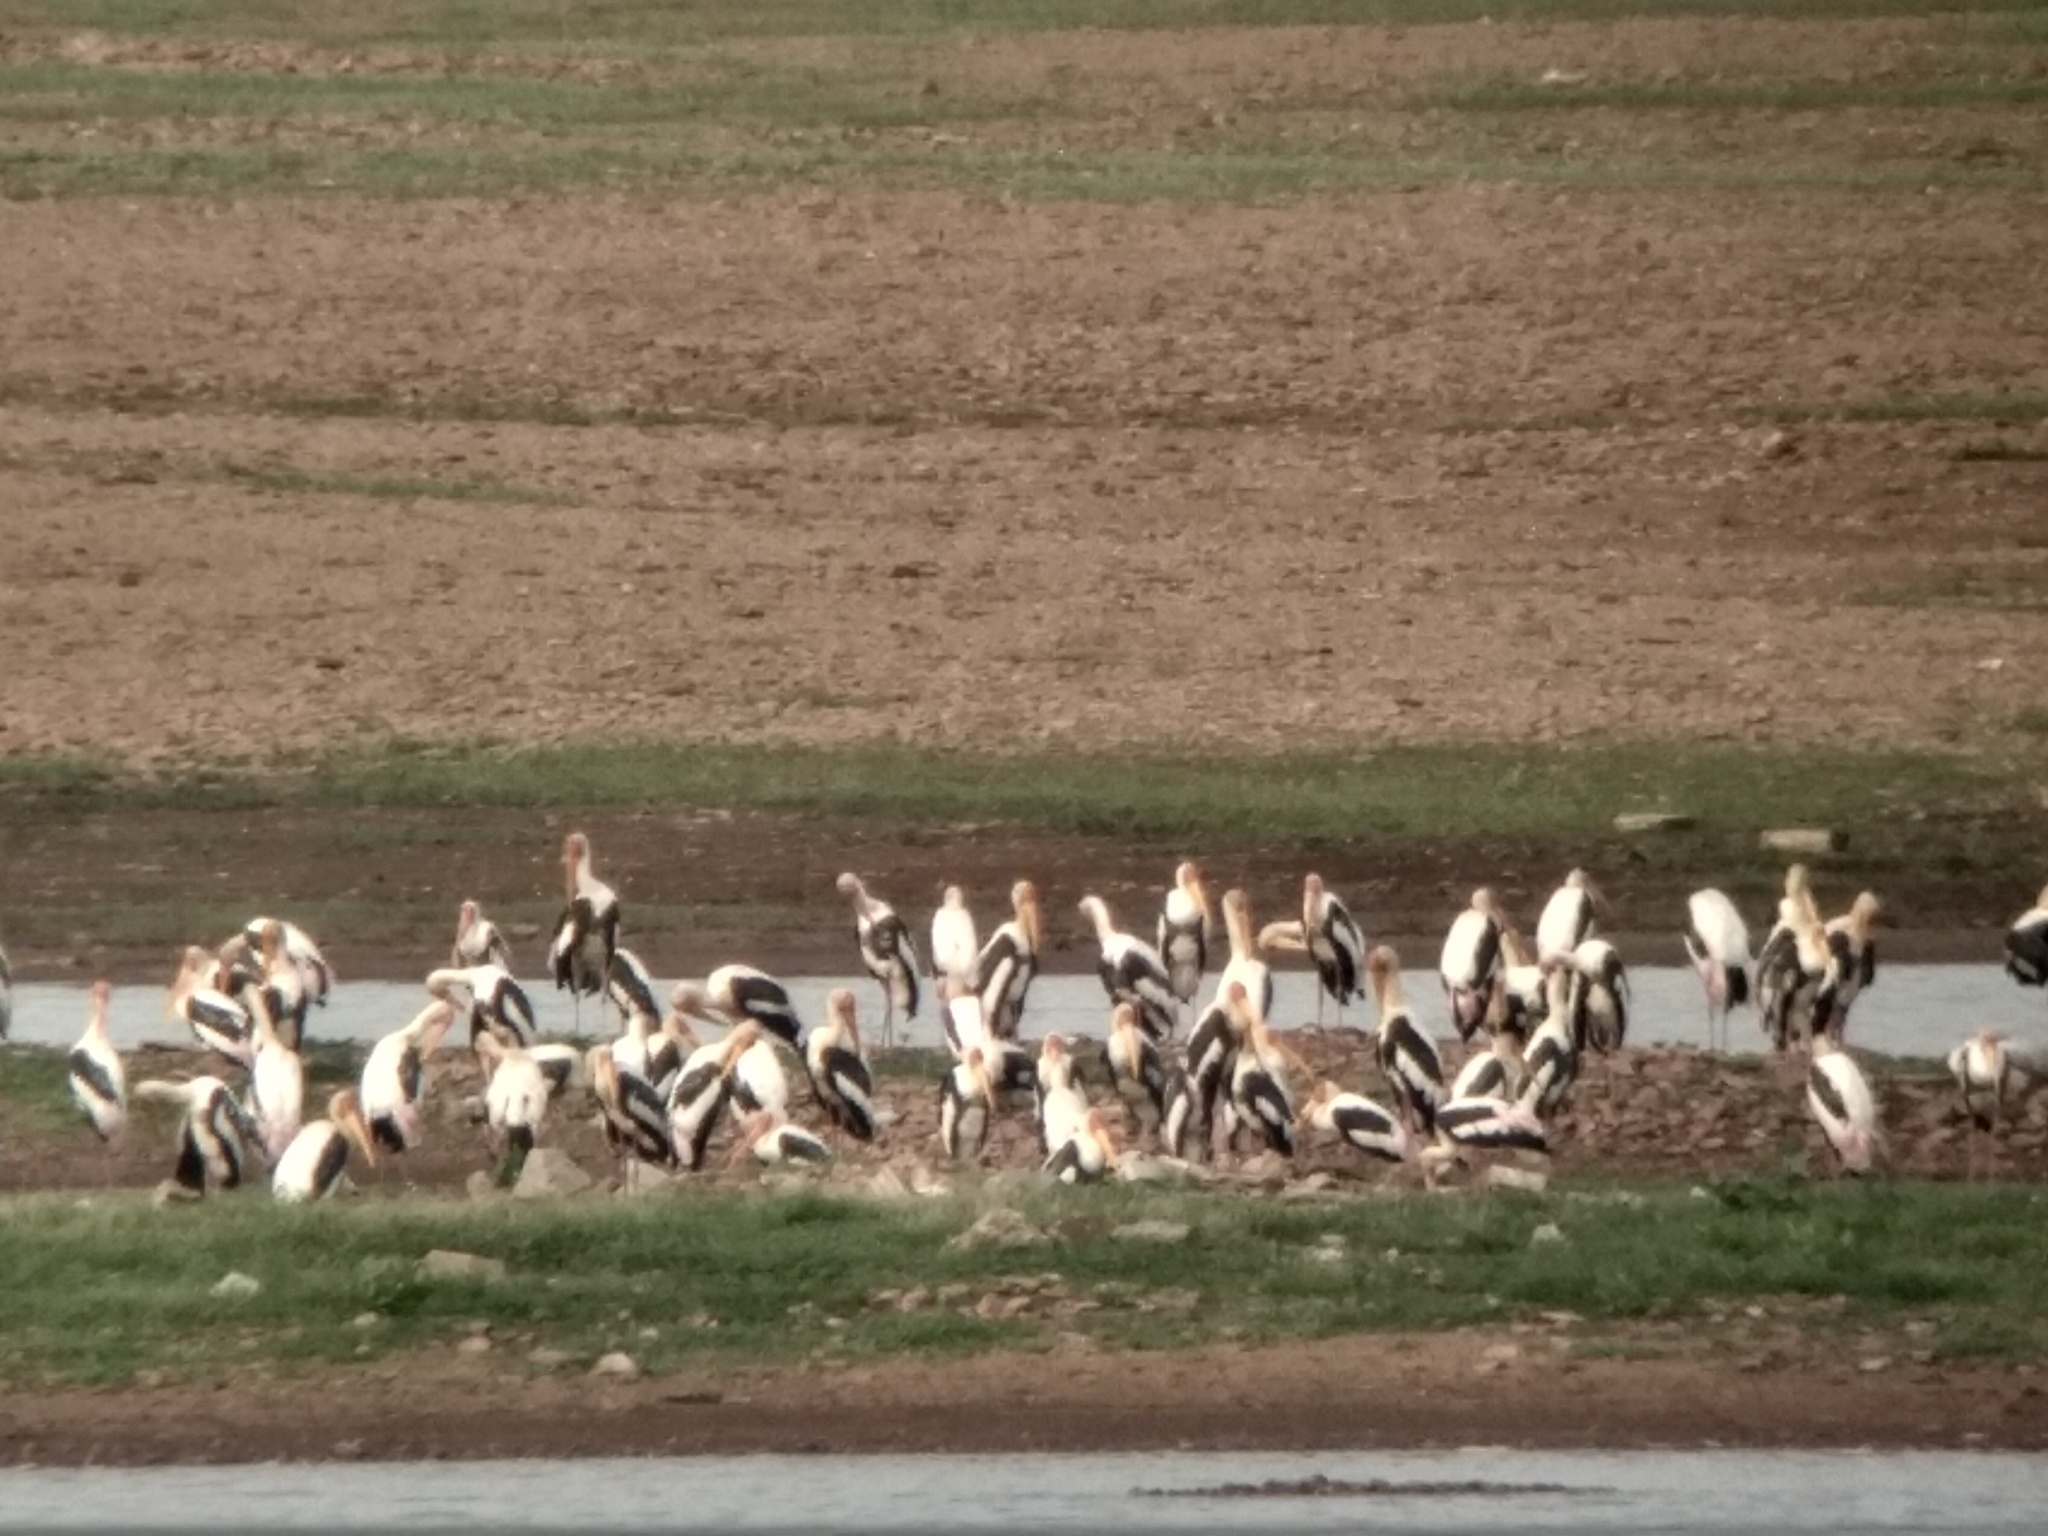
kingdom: Animalia
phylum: Chordata
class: Aves
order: Ciconiiformes
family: Ciconiidae
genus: Mycteria
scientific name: Mycteria leucocephala
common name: Painted stork
